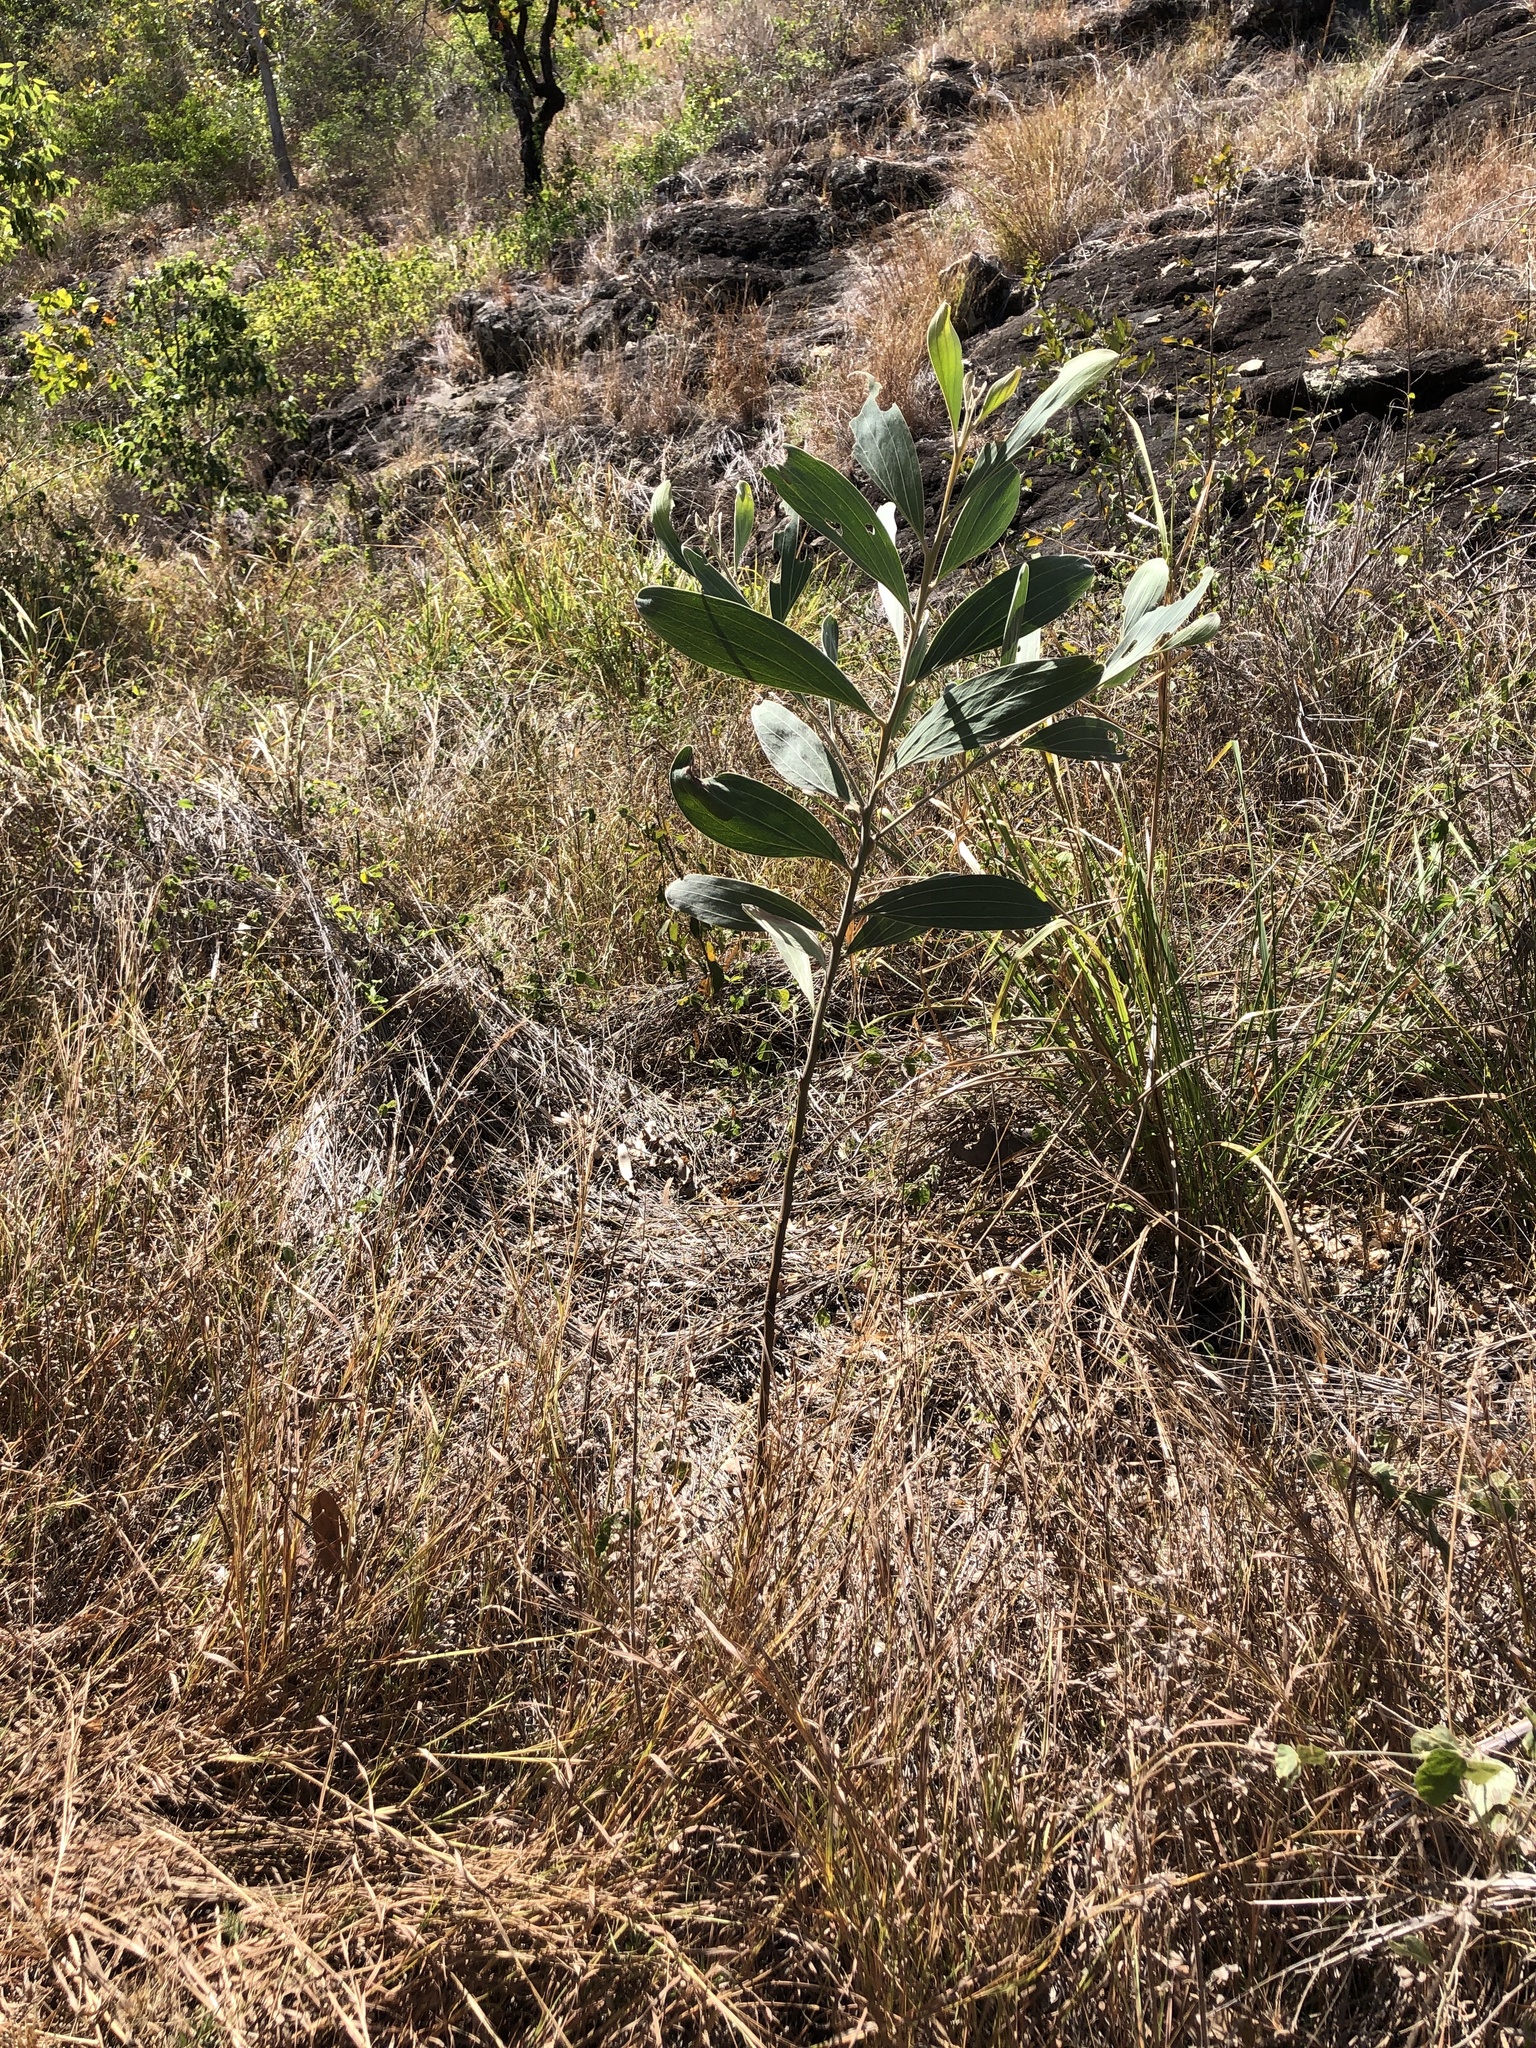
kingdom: Plantae
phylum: Tracheophyta
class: Magnoliopsida
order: Fabales
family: Fabaceae
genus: Acacia
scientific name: Acacia holosericea
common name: Candelabra wattle
